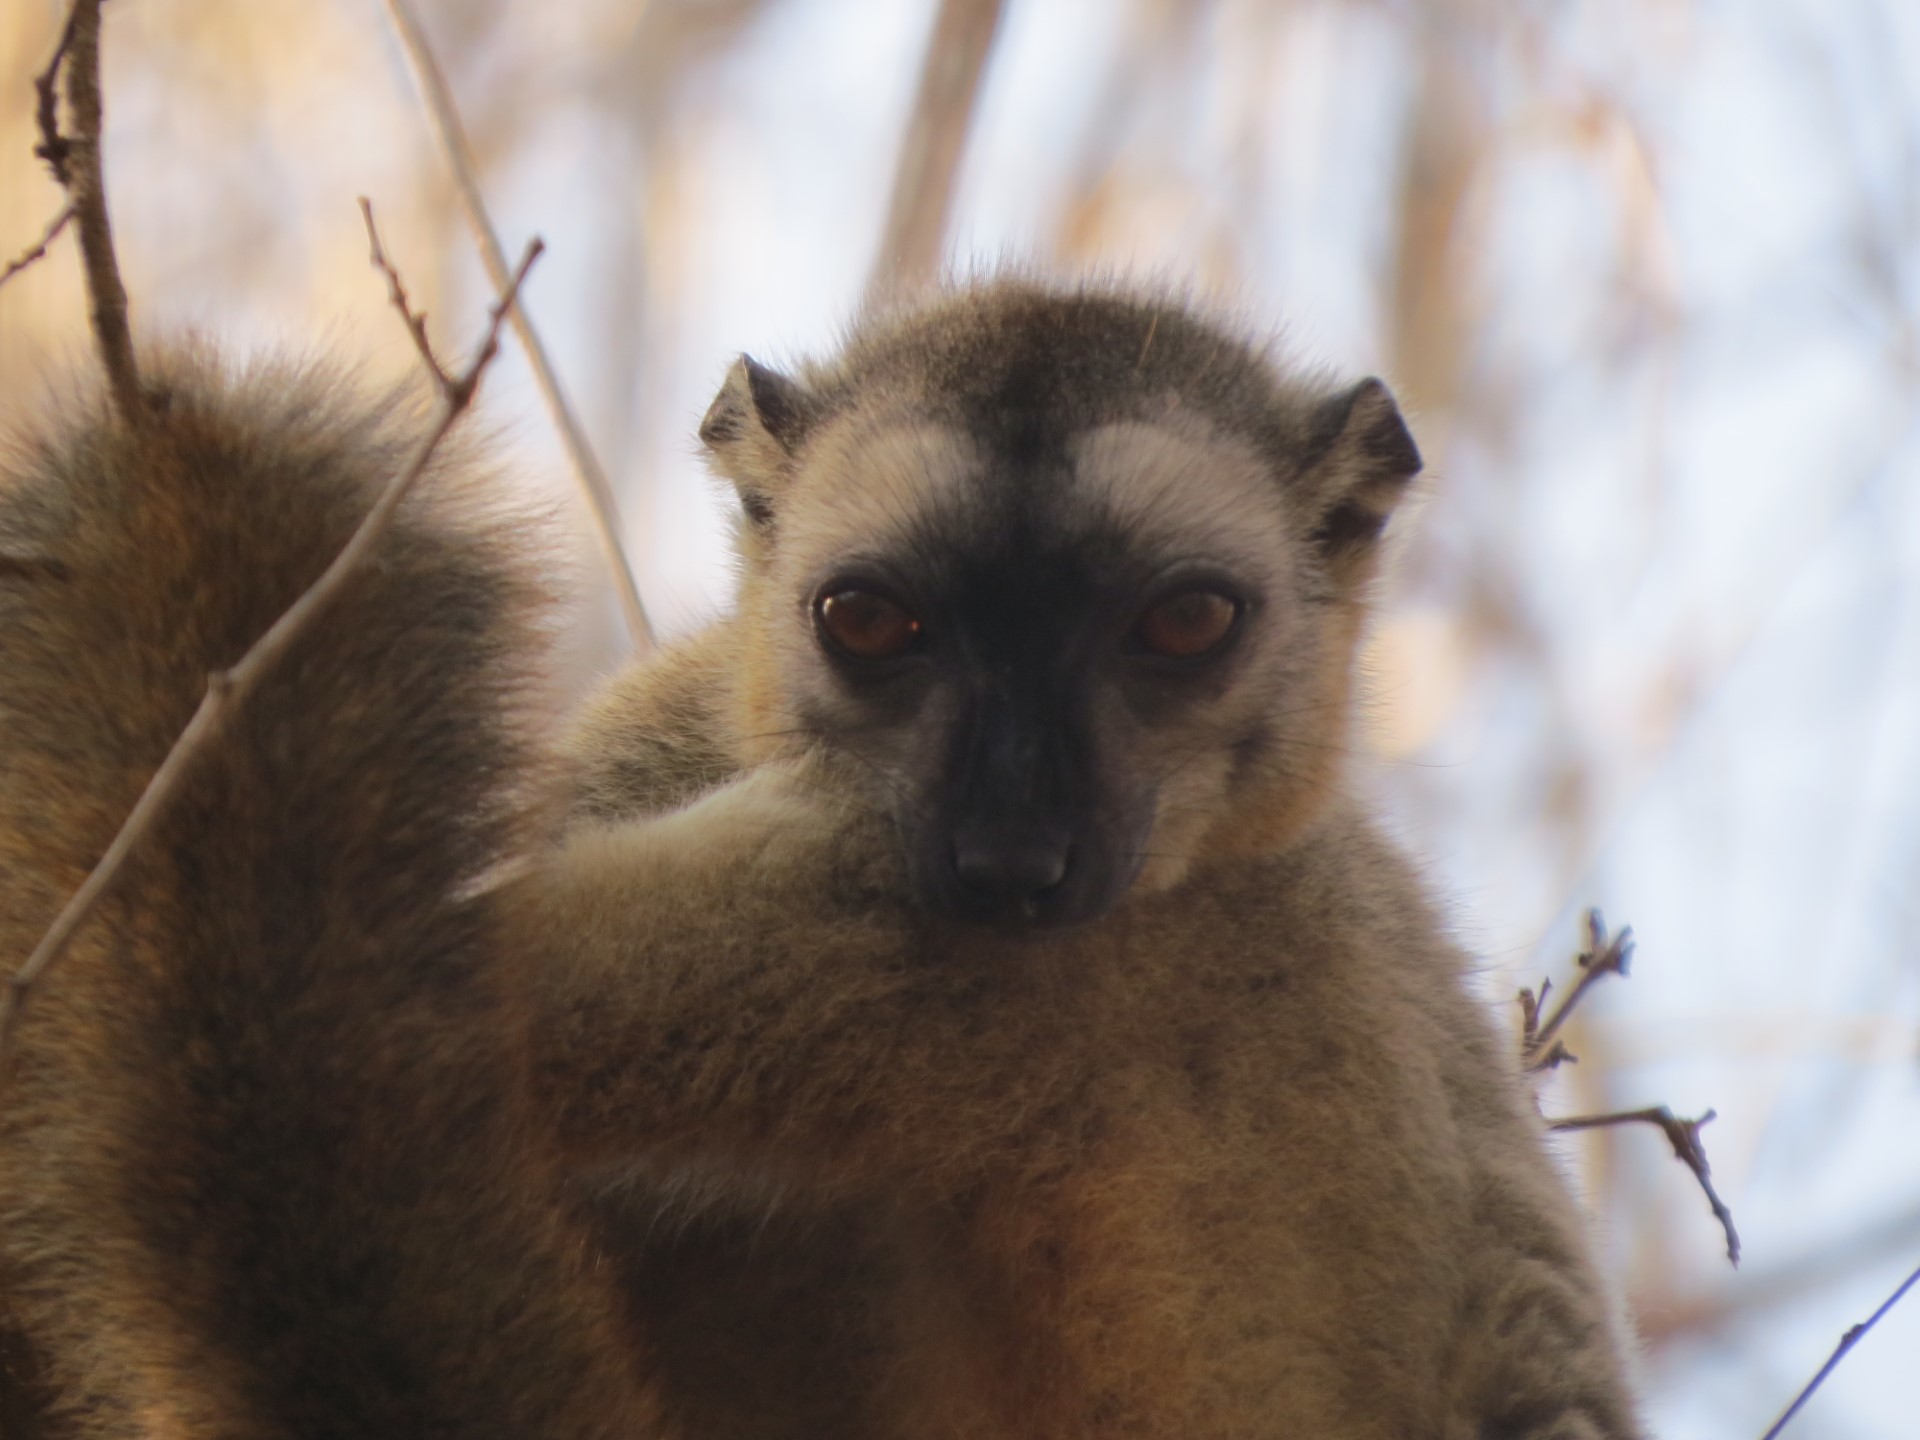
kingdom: Animalia
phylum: Chordata
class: Mammalia
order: Primates
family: Lemuridae
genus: Eulemur
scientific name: Eulemur rufifrons
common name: Red-fronted brown lemur
